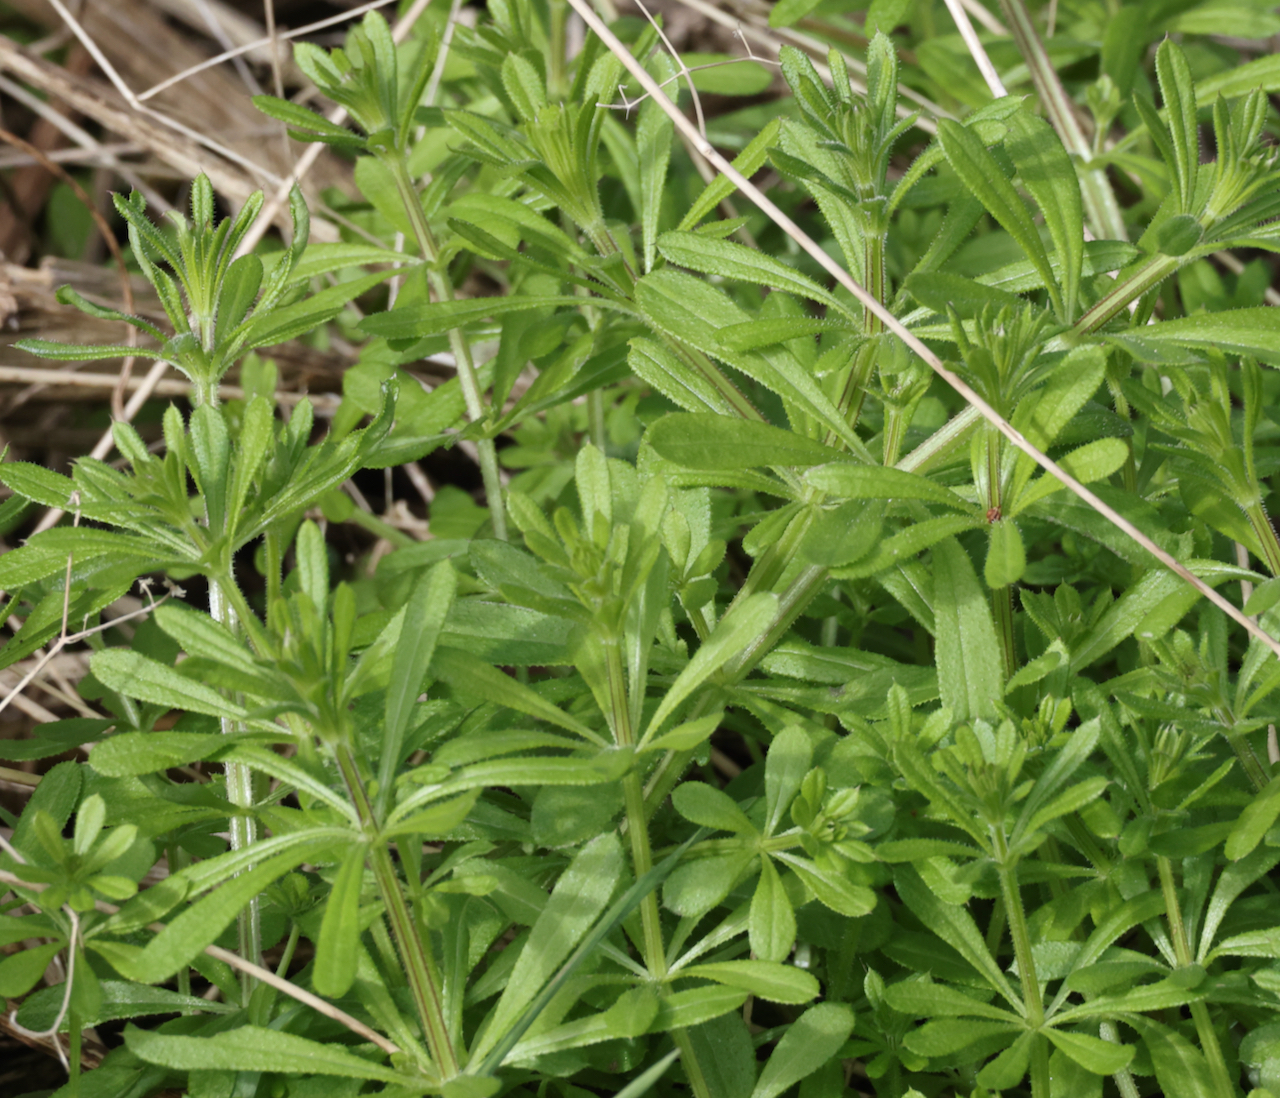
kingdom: Plantae
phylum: Tracheophyta
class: Magnoliopsida
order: Gentianales
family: Rubiaceae
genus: Galium
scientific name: Galium aparine
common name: Cleavers
